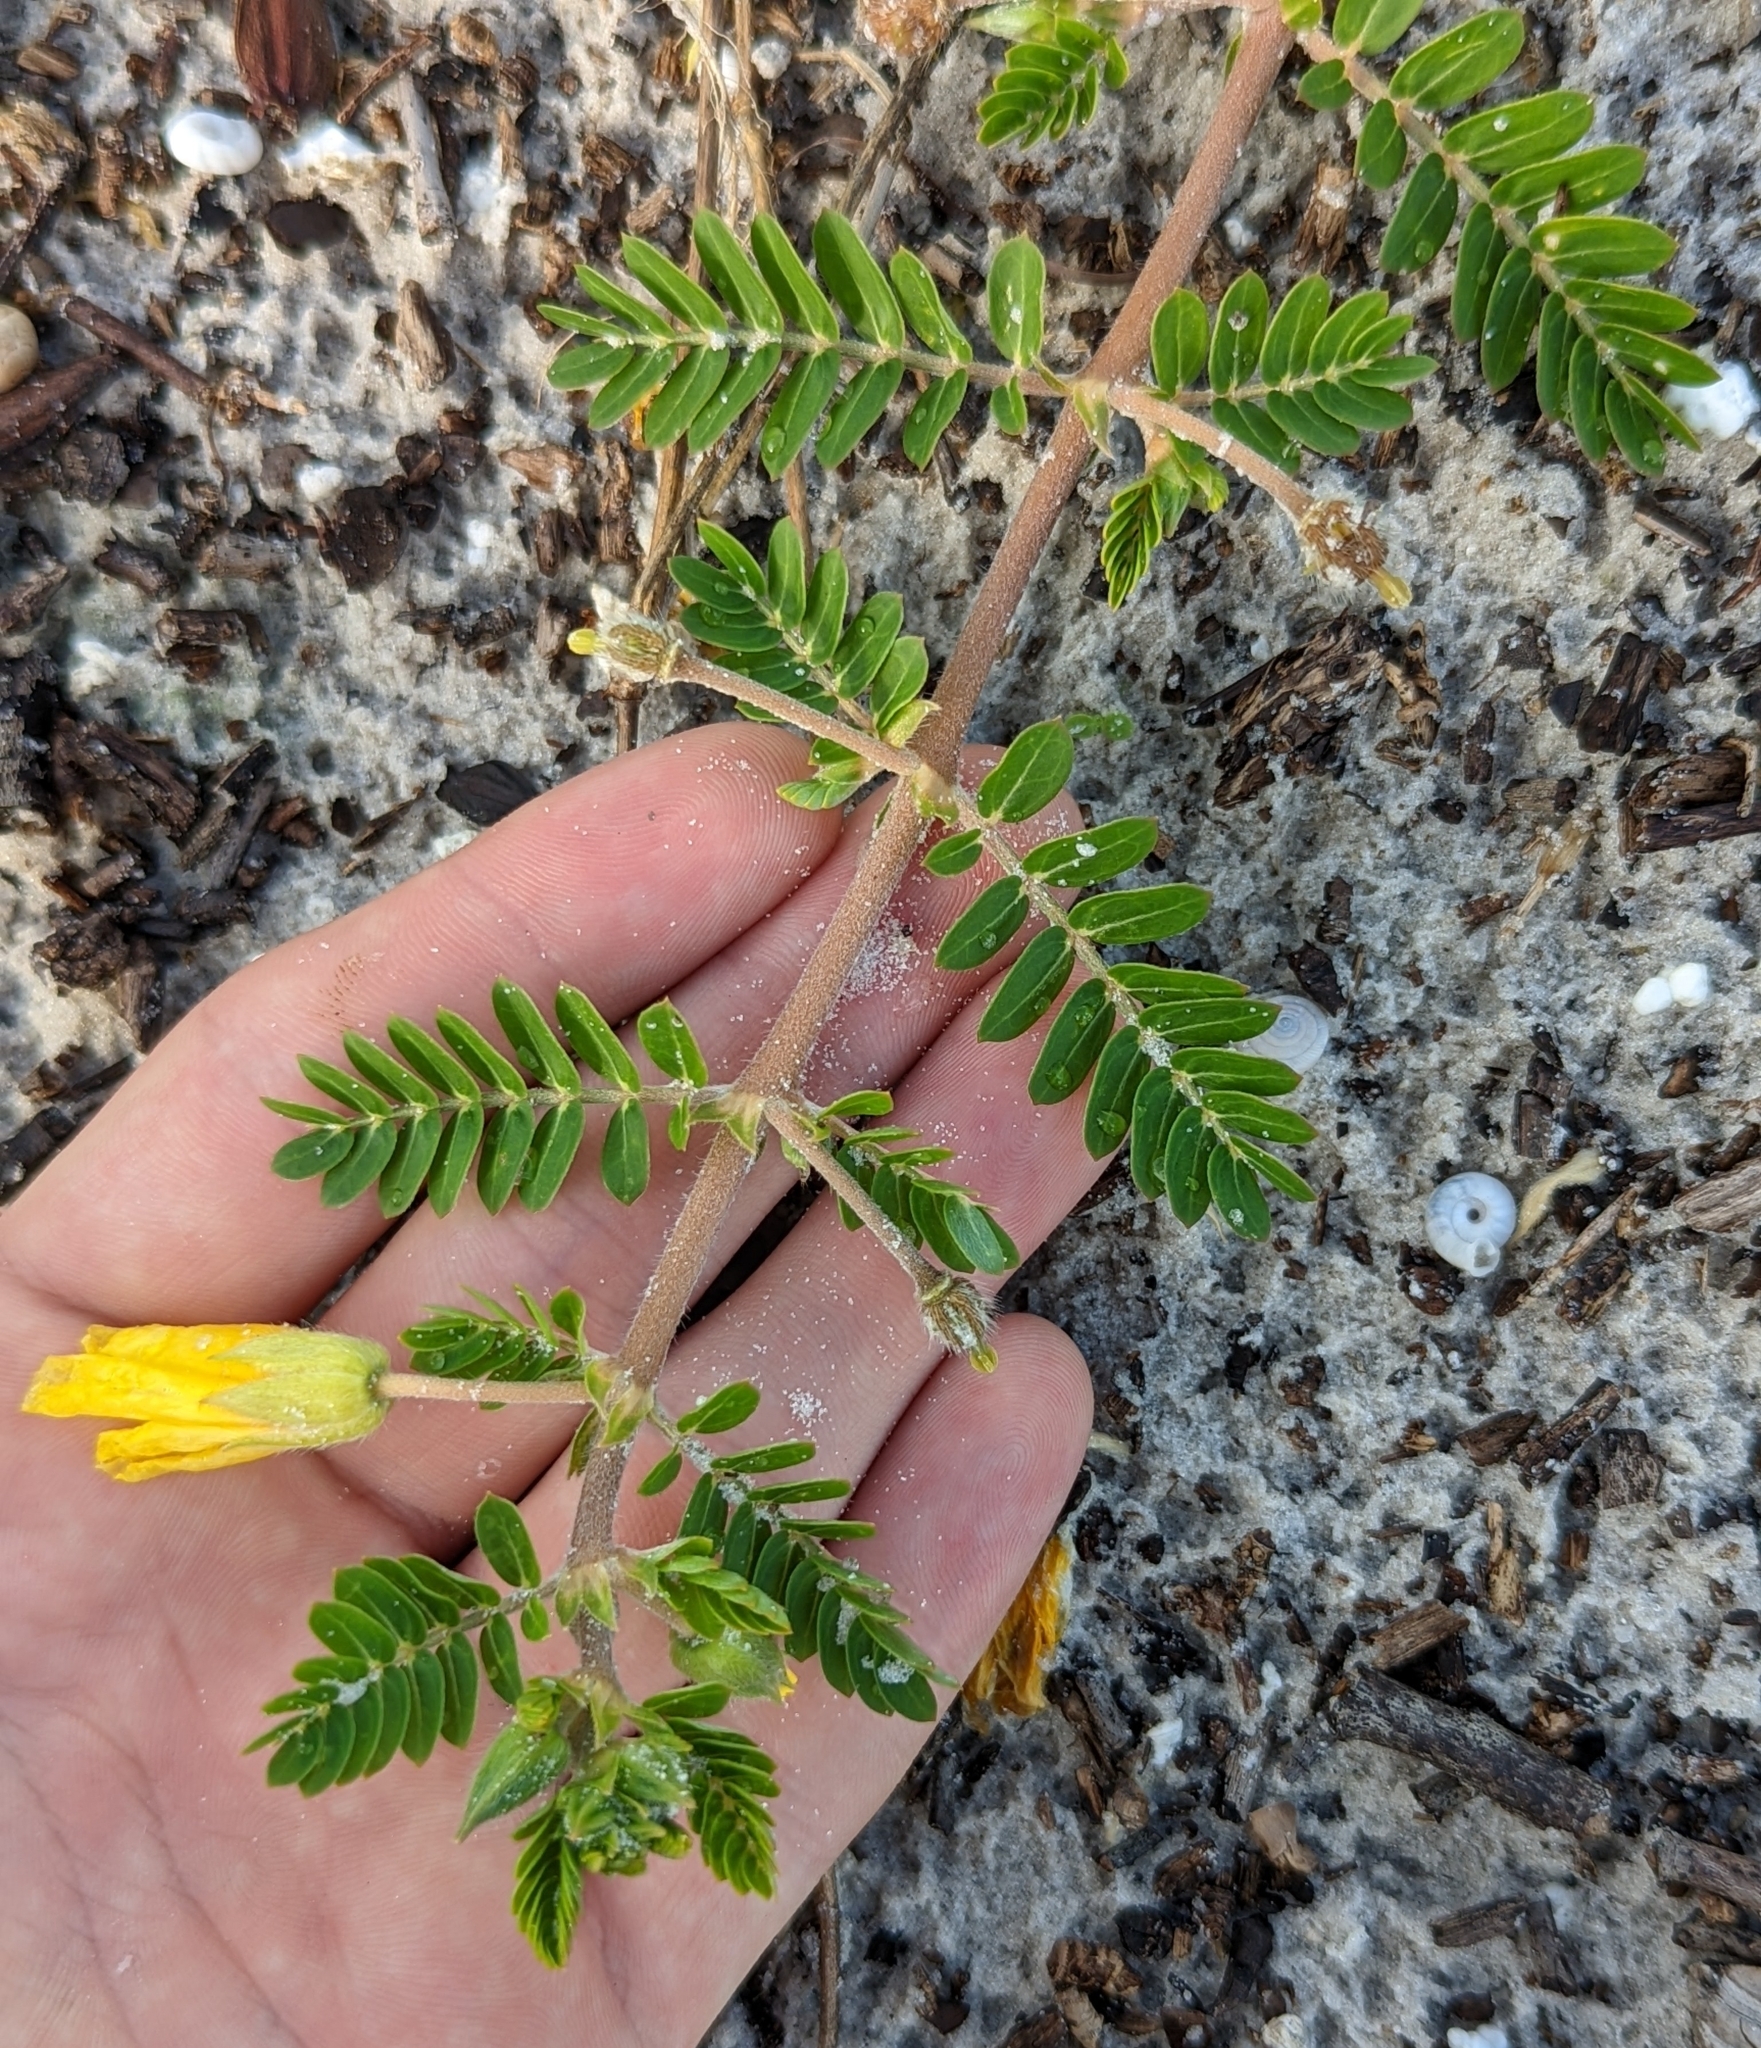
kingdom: Plantae
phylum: Tracheophyta
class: Magnoliopsida
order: Zygophyllales
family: Zygophyllaceae
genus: Tribulus
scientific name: Tribulus cistoides
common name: Jamaican feverplant
